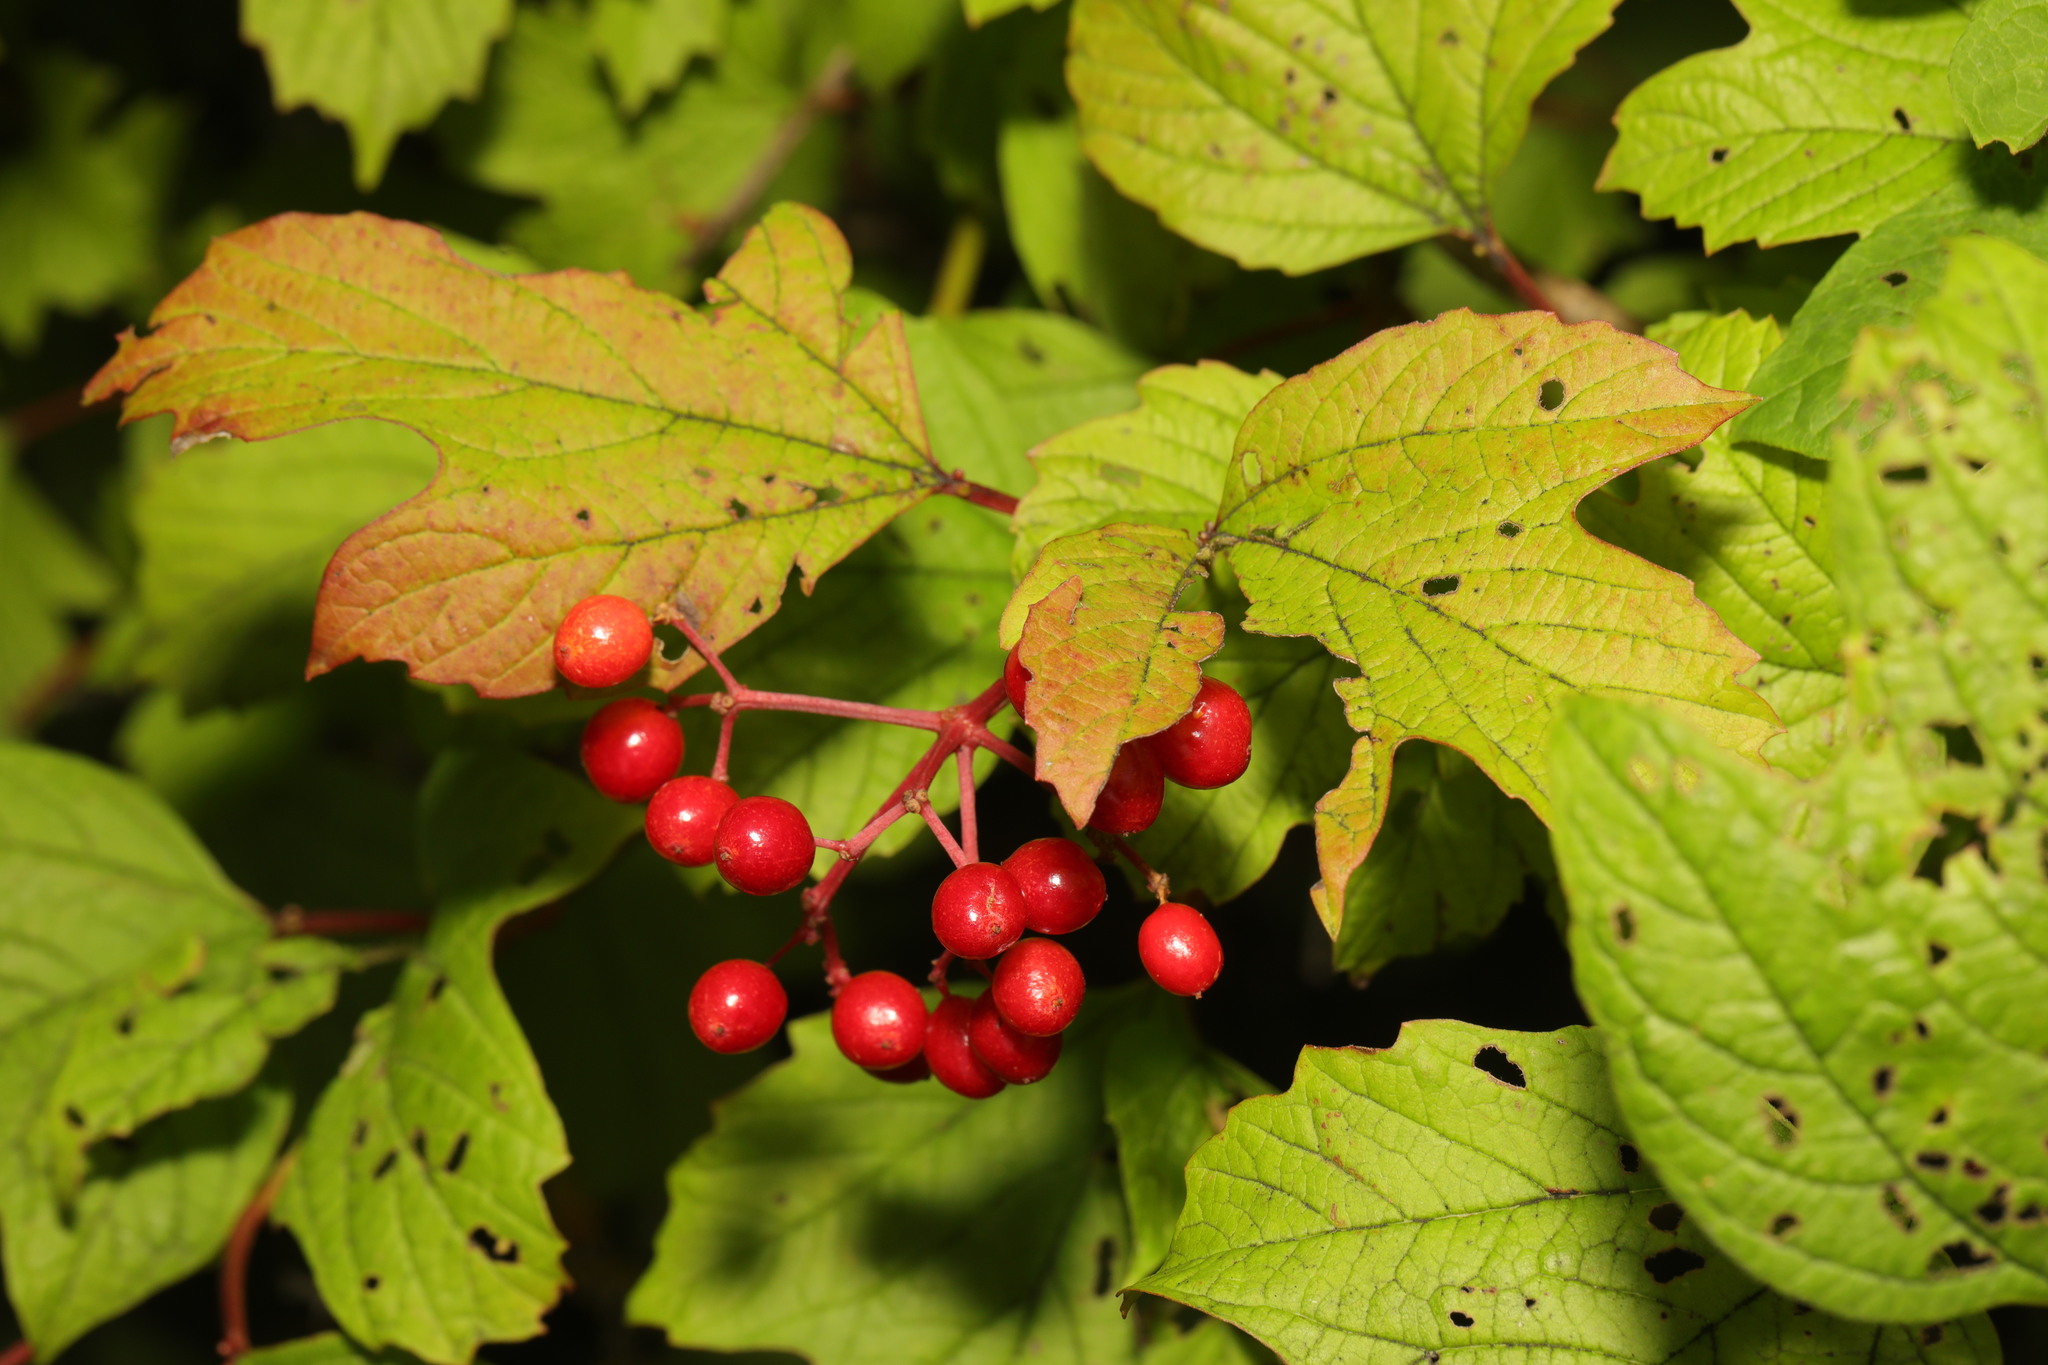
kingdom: Plantae
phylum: Tracheophyta
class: Magnoliopsida
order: Dipsacales
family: Viburnaceae
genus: Viburnum
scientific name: Viburnum opulus
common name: Guelder-rose
